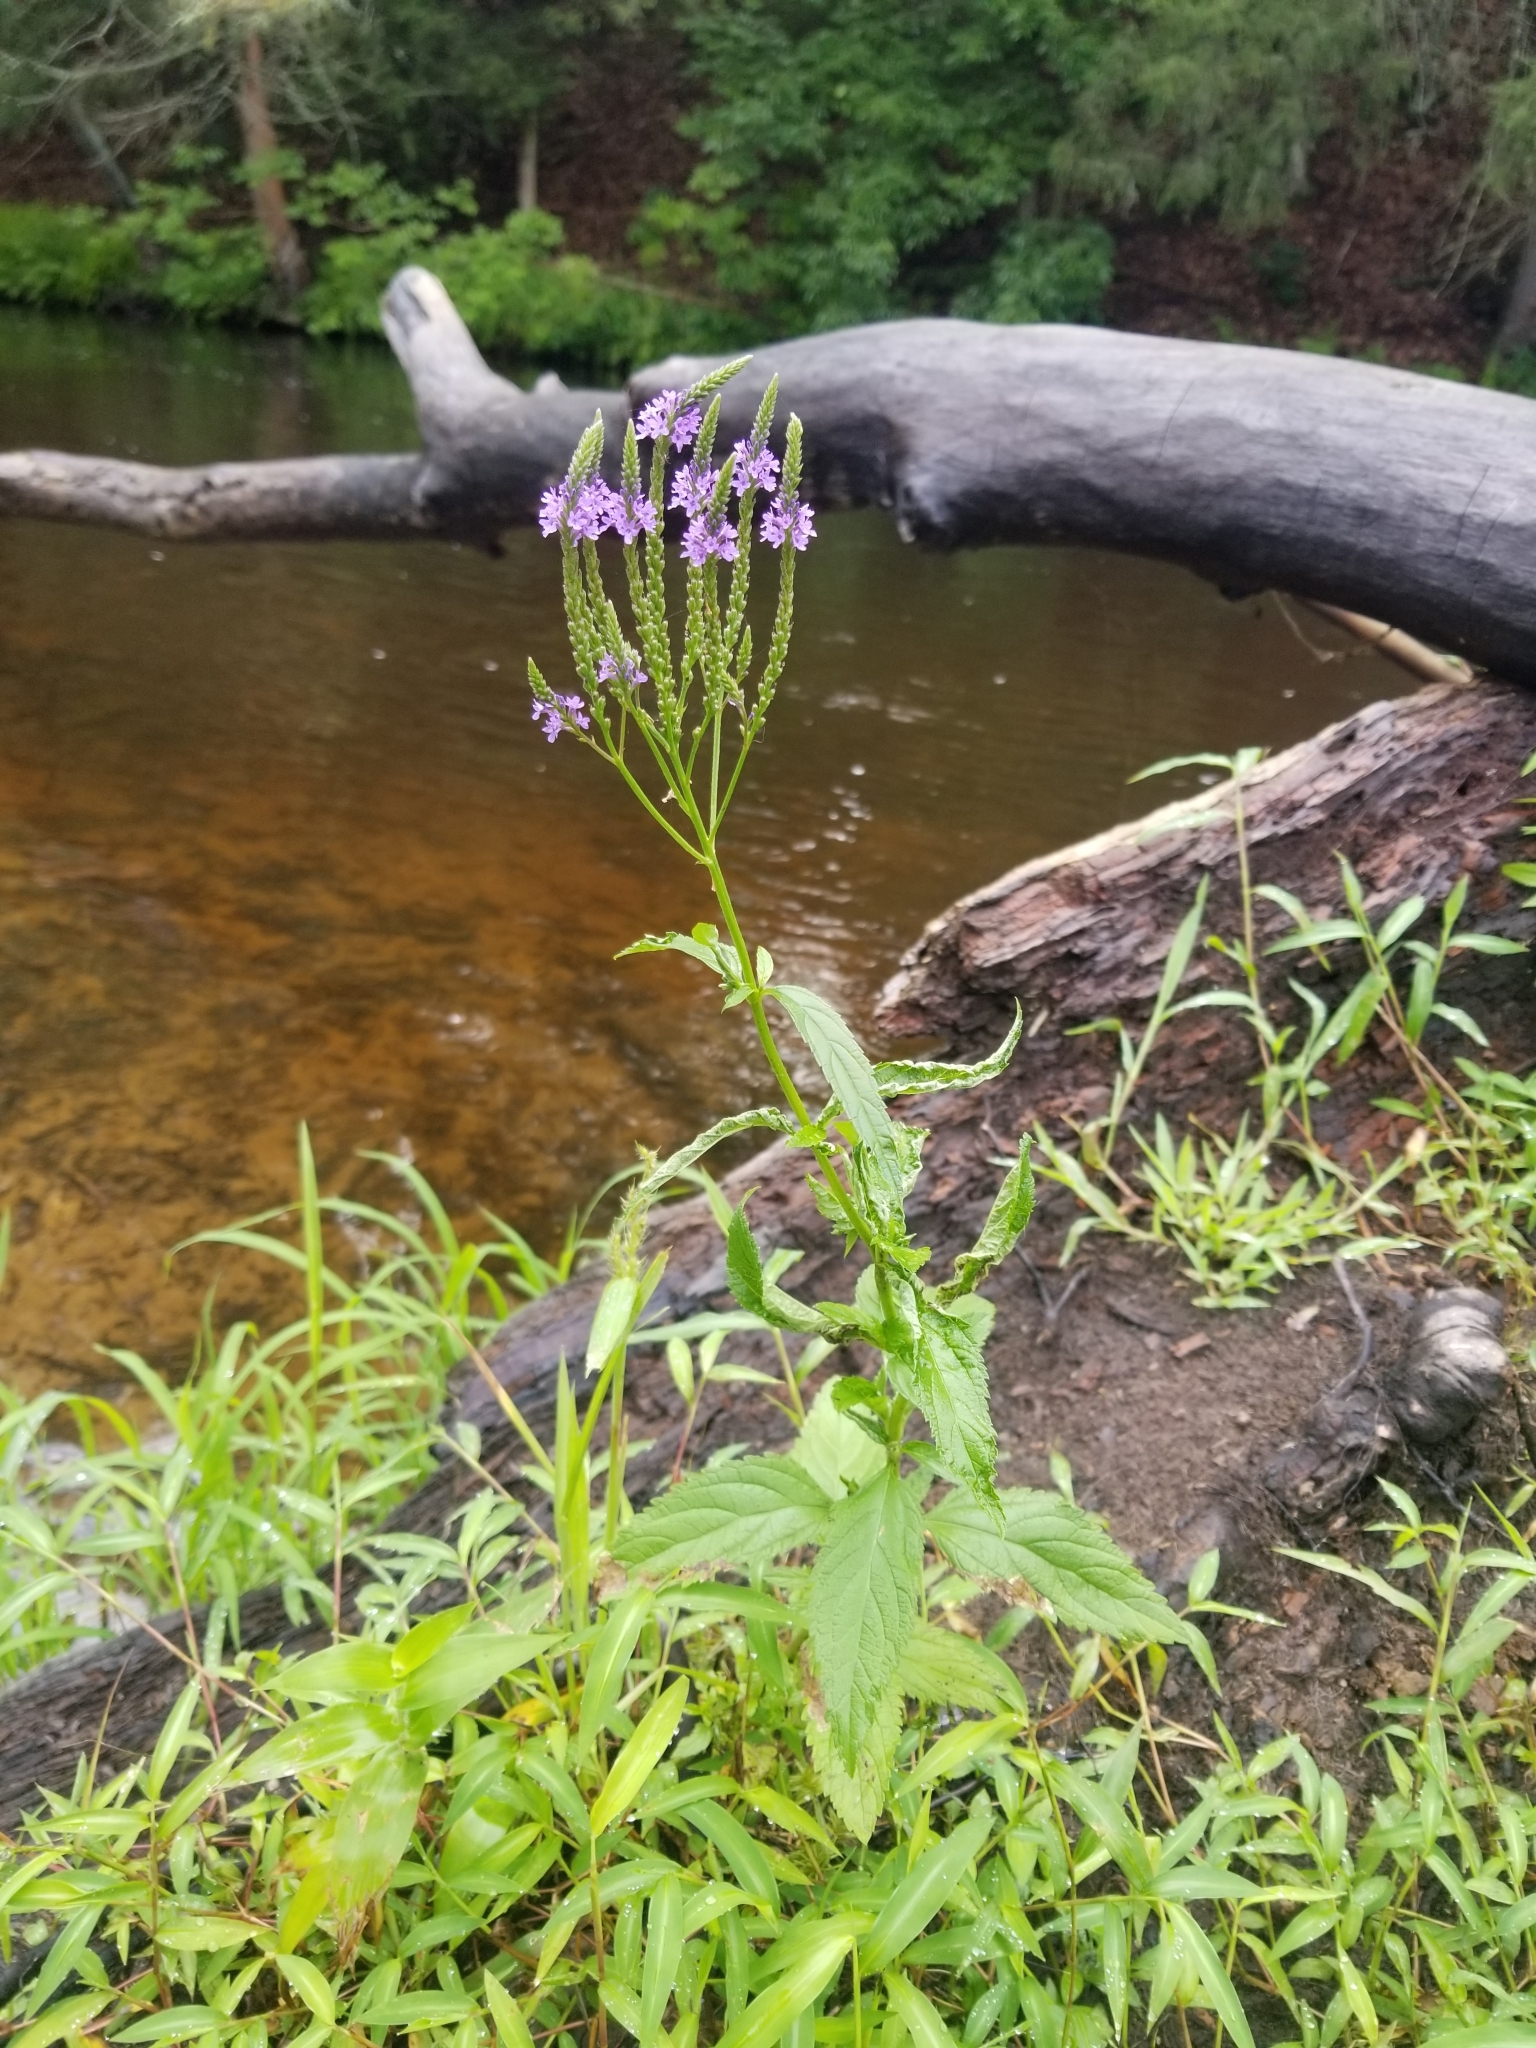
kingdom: Plantae
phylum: Tracheophyta
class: Magnoliopsida
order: Lamiales
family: Verbenaceae
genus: Verbena
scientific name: Verbena hastata
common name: American blue vervain
